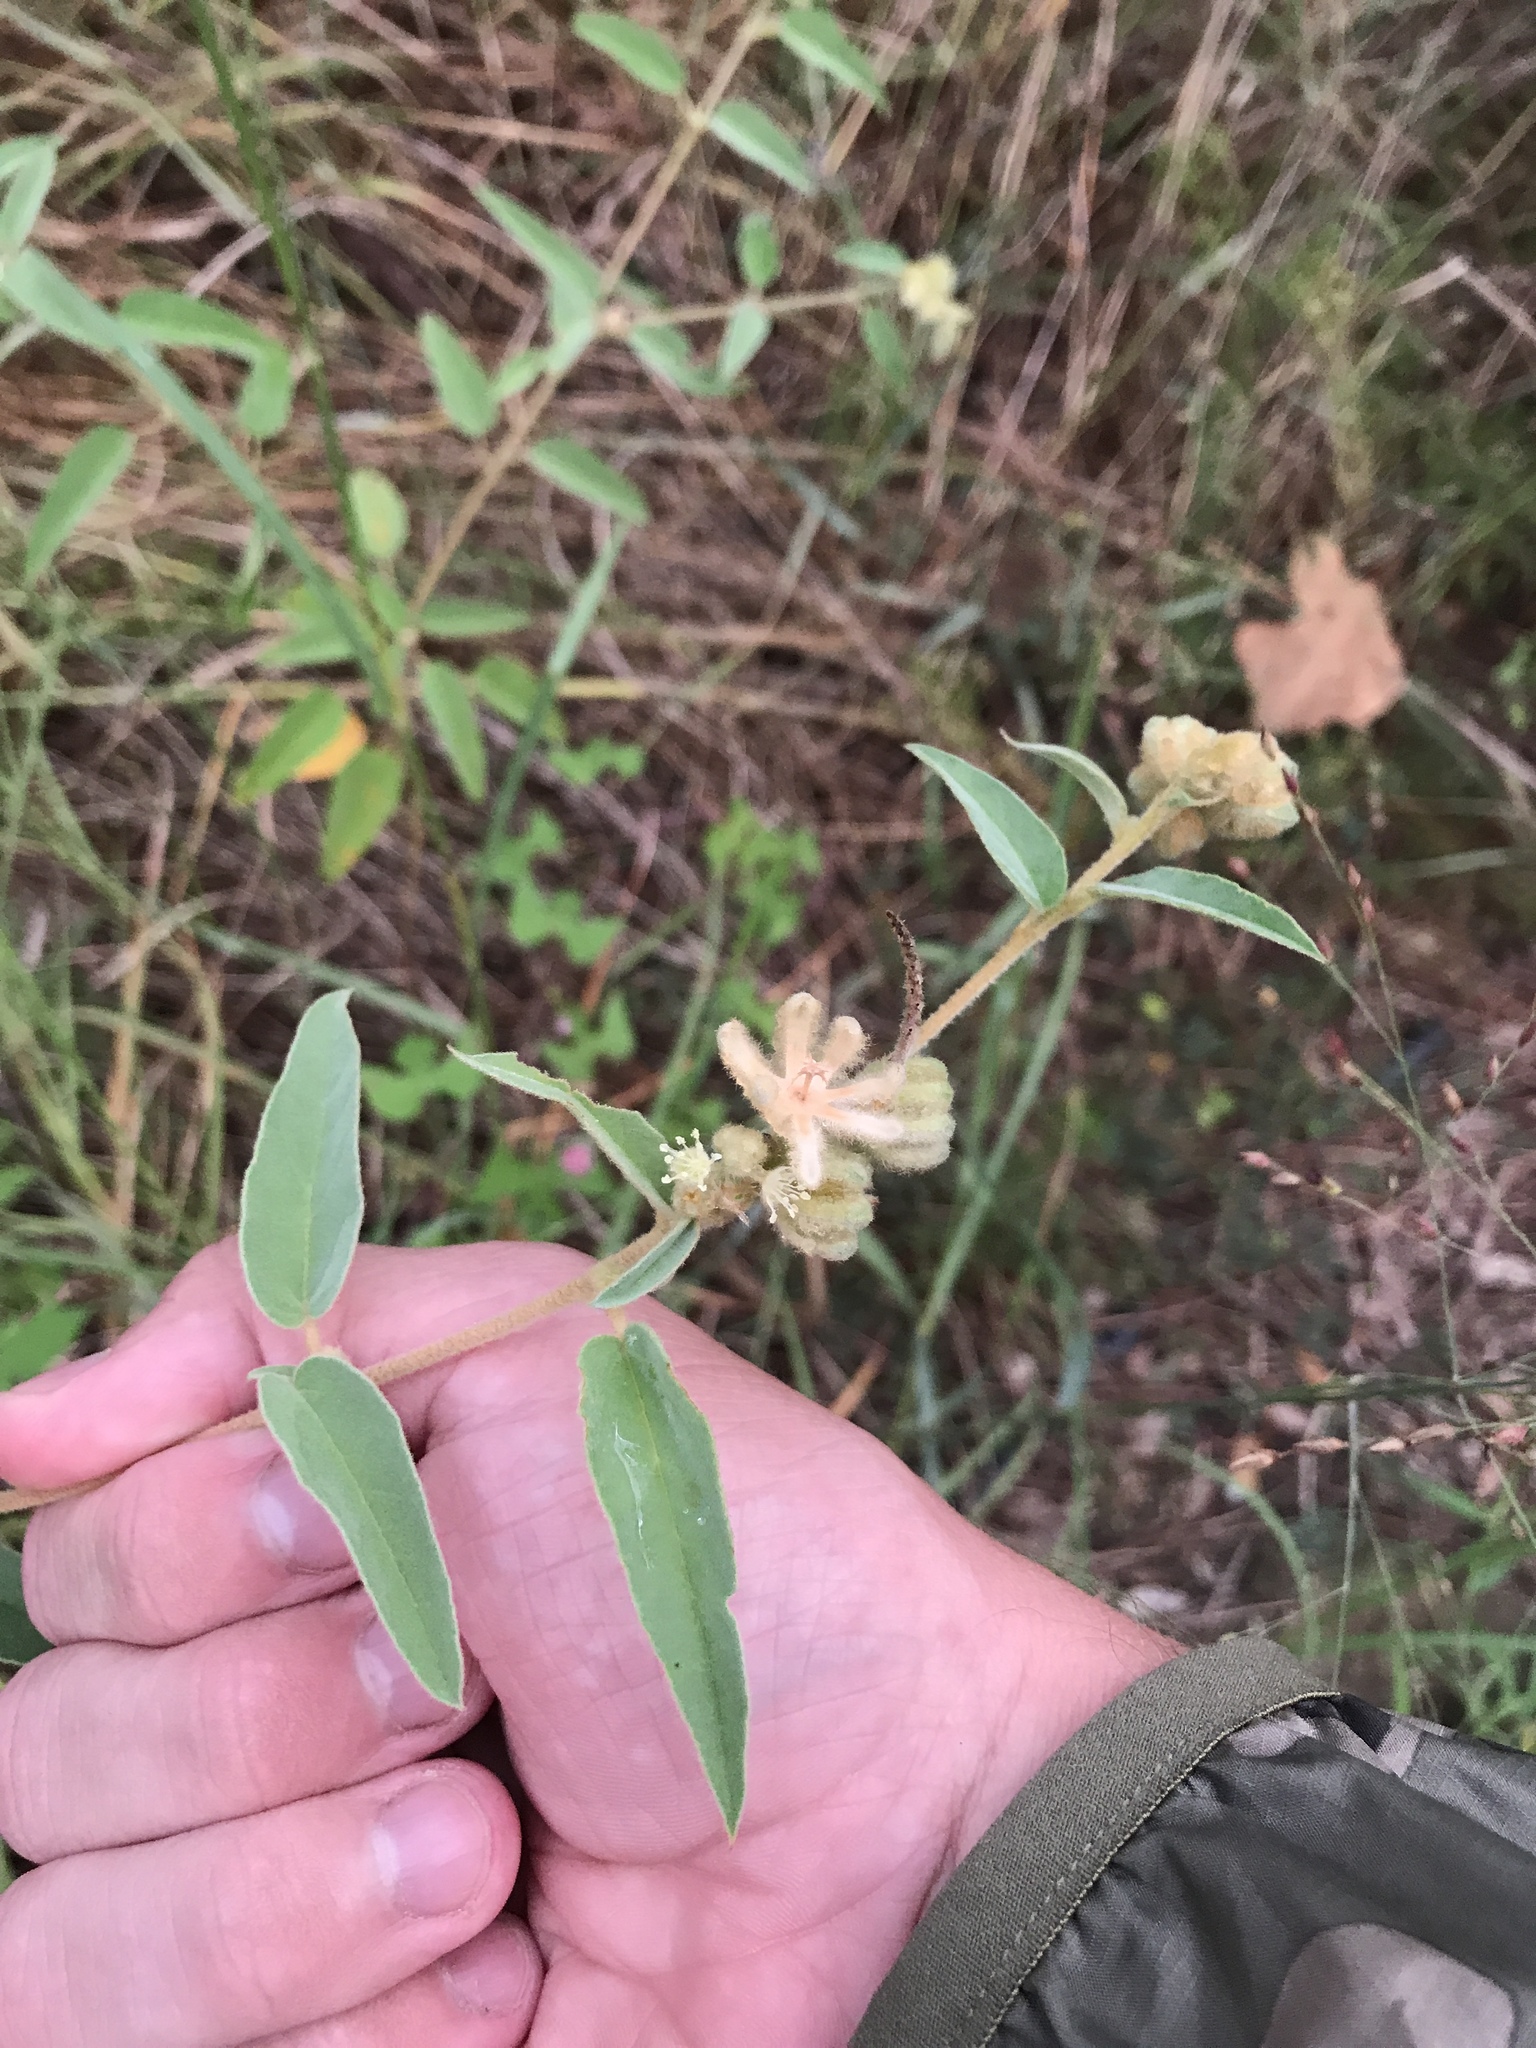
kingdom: Plantae
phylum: Tracheophyta
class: Magnoliopsida
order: Malpighiales
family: Euphorbiaceae
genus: Croton
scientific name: Croton lindheimeri
